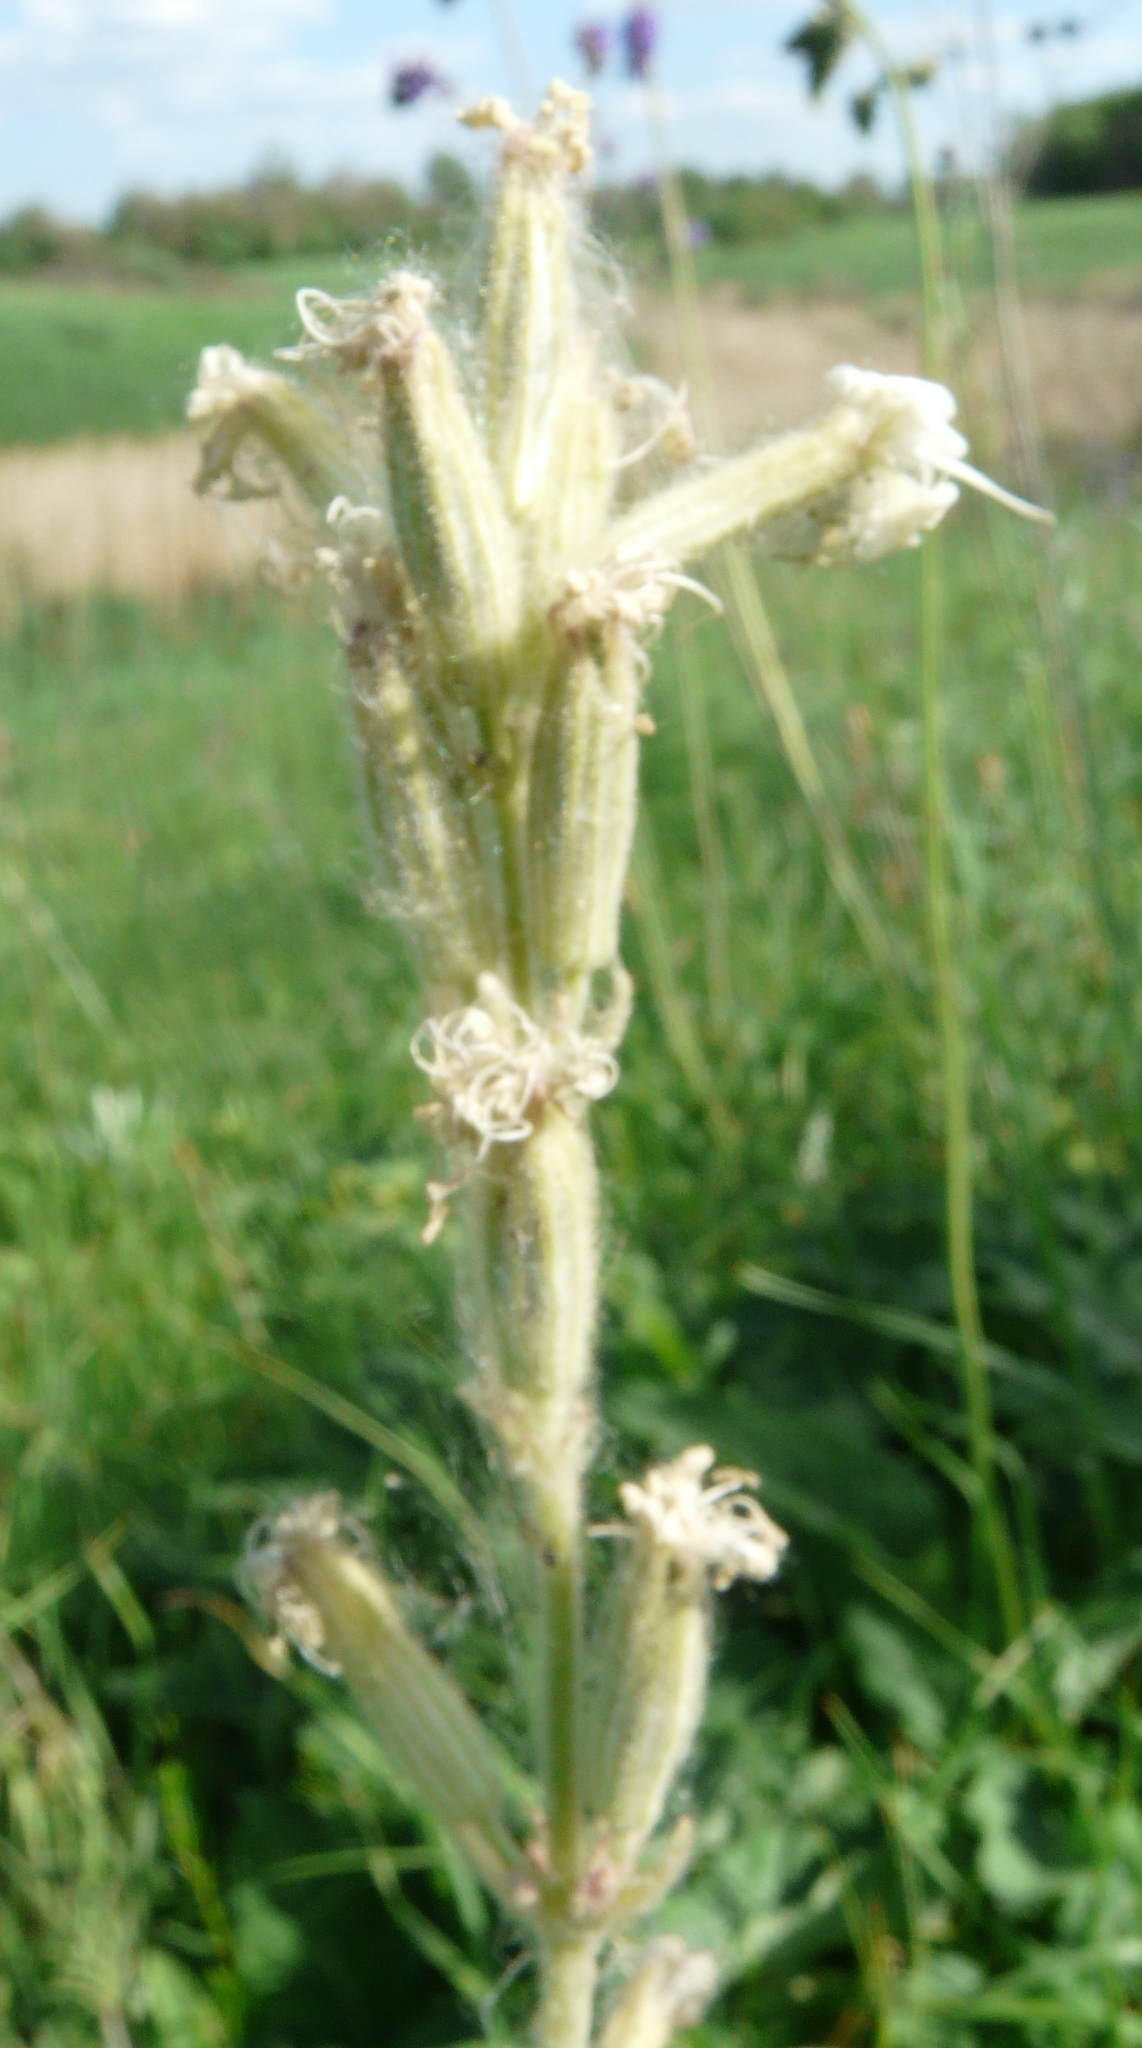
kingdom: Plantae
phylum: Tracheophyta
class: Magnoliopsida
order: Caryophyllales
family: Caryophyllaceae
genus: Silene
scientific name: Silene viscosa
